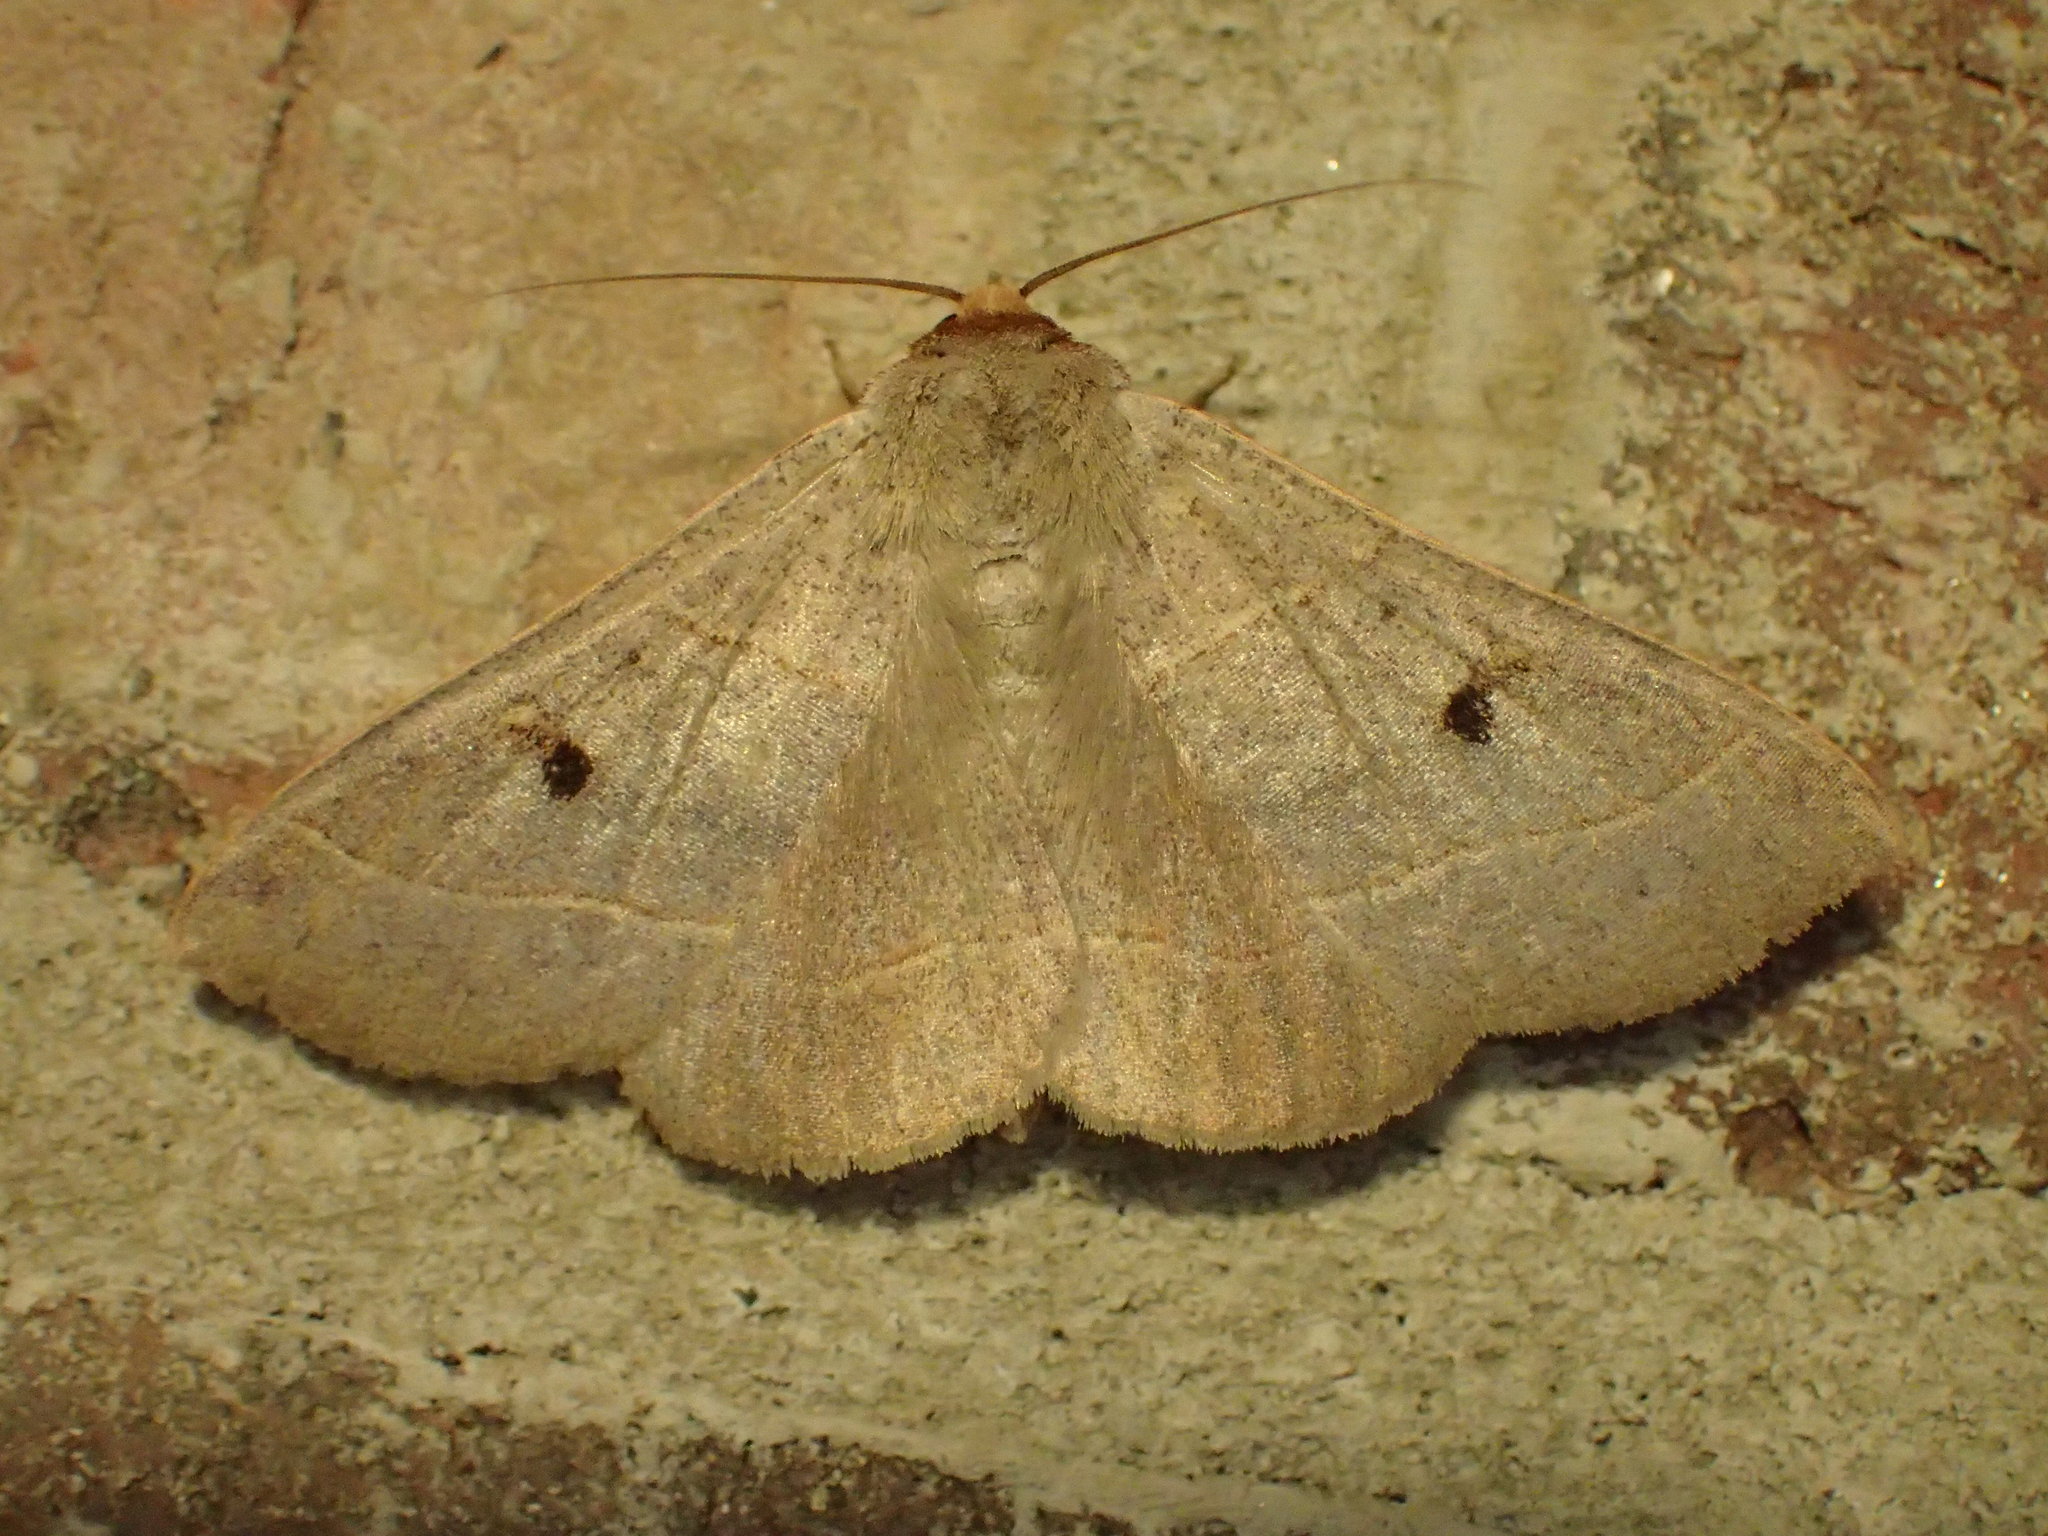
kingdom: Animalia
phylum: Arthropoda
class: Insecta
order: Lepidoptera
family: Erebidae
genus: Panopoda
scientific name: Panopoda rufimargo
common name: Red-lined panopoda moth
